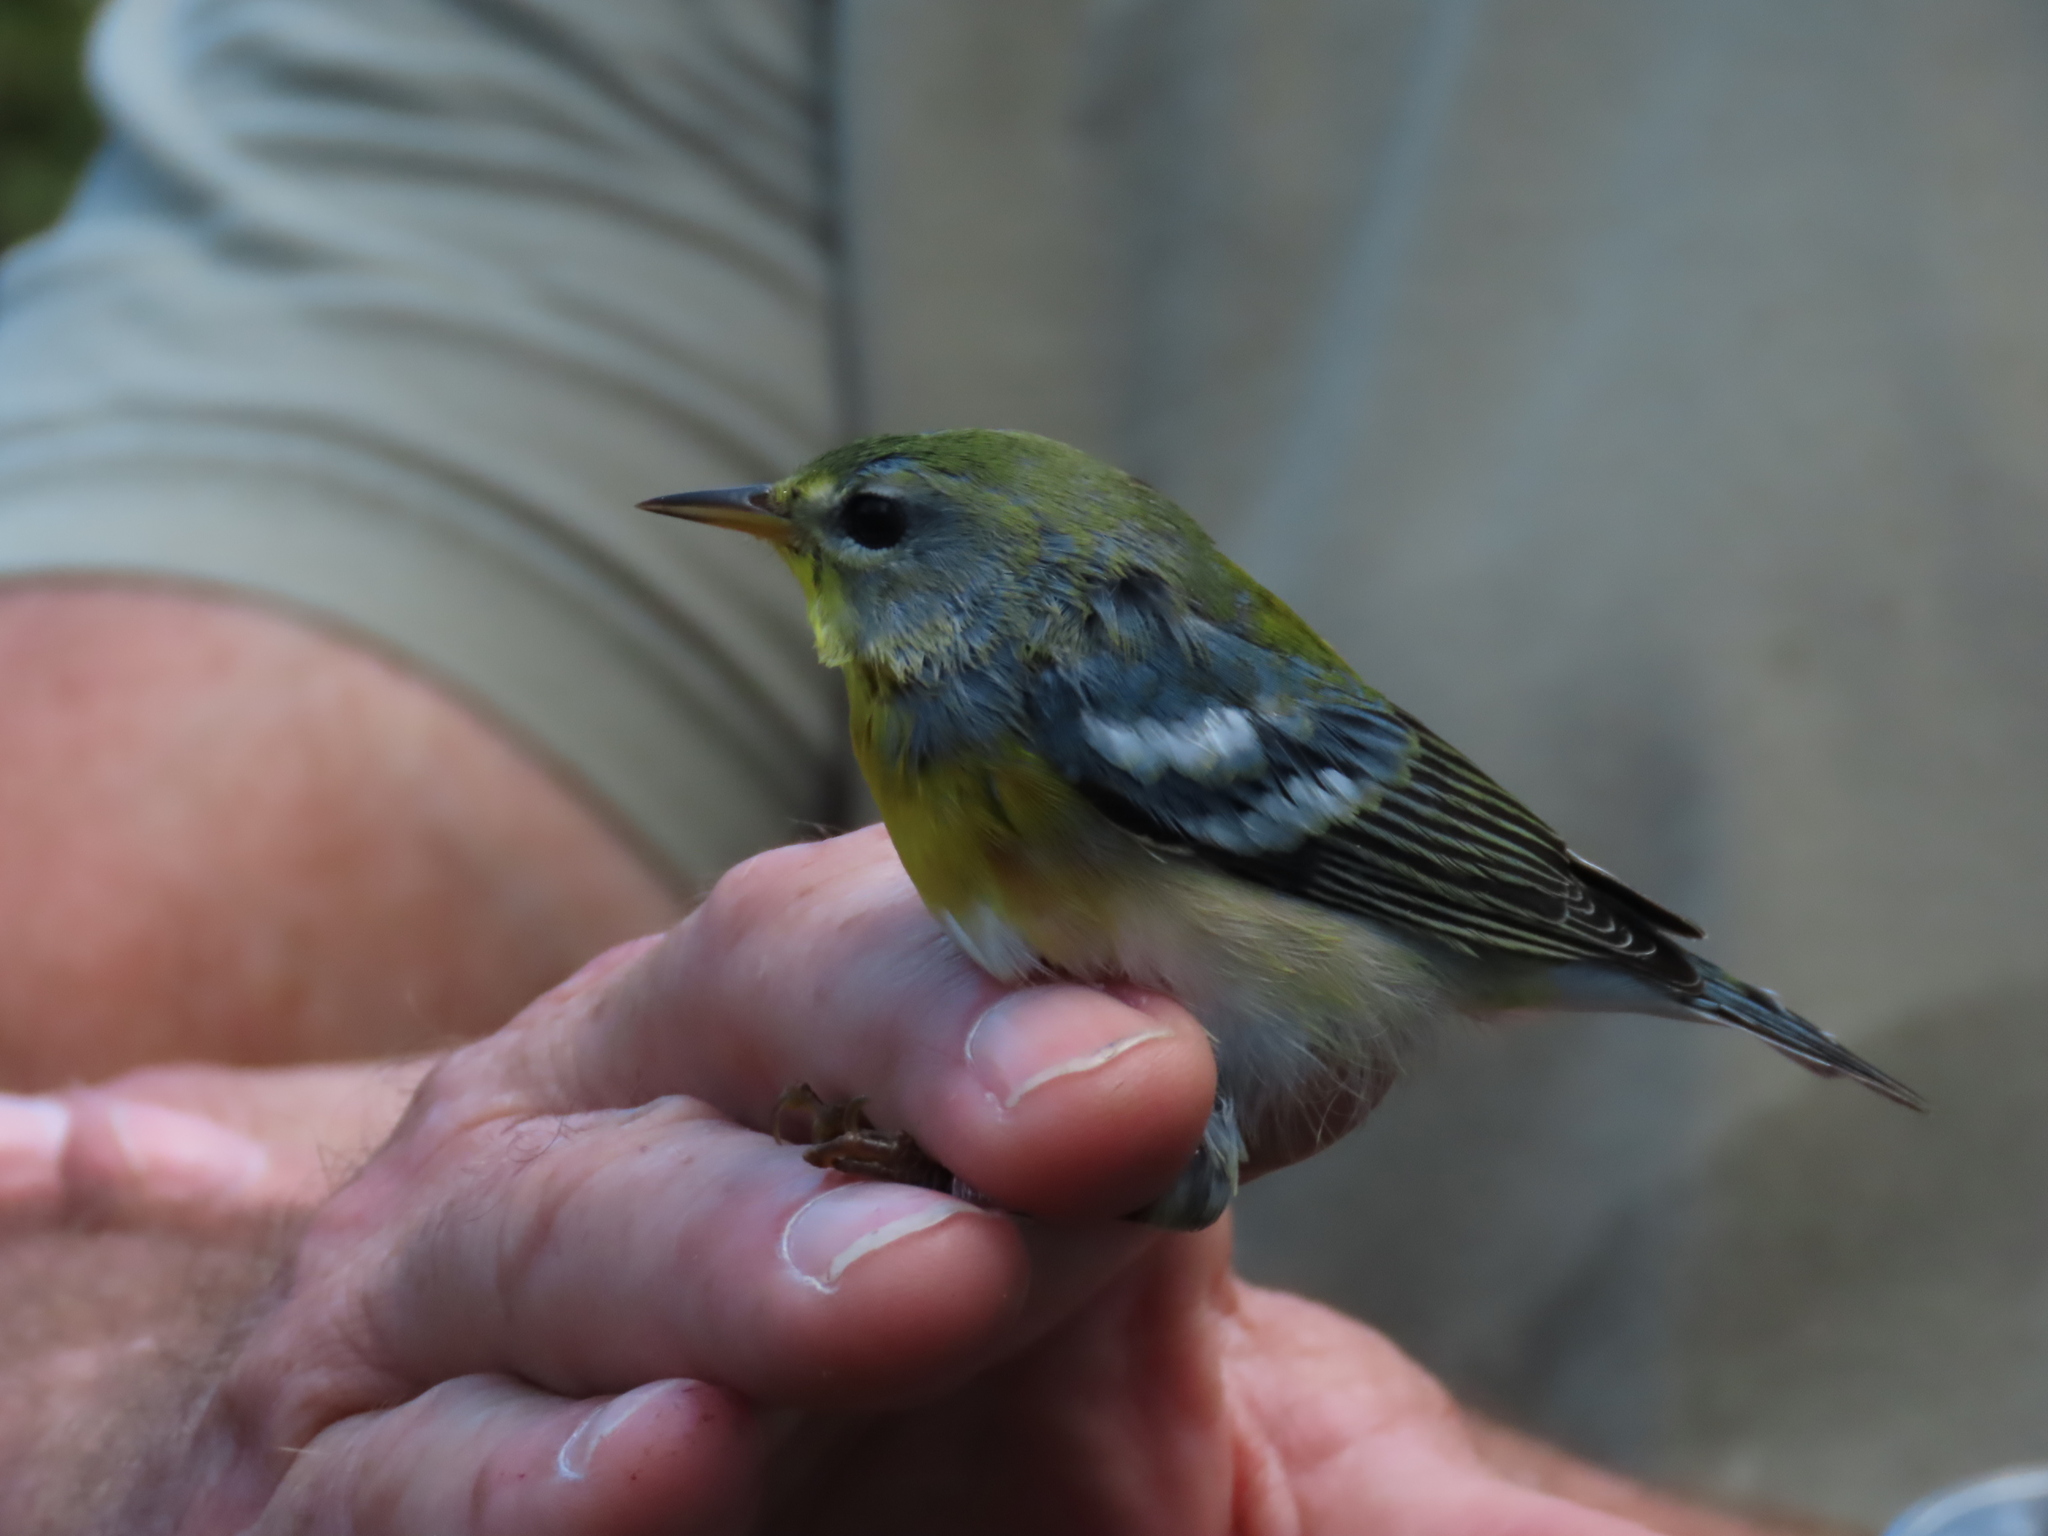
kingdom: Animalia
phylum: Chordata
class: Aves
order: Passeriformes
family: Parulidae
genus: Setophaga
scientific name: Setophaga americana
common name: Northern parula
